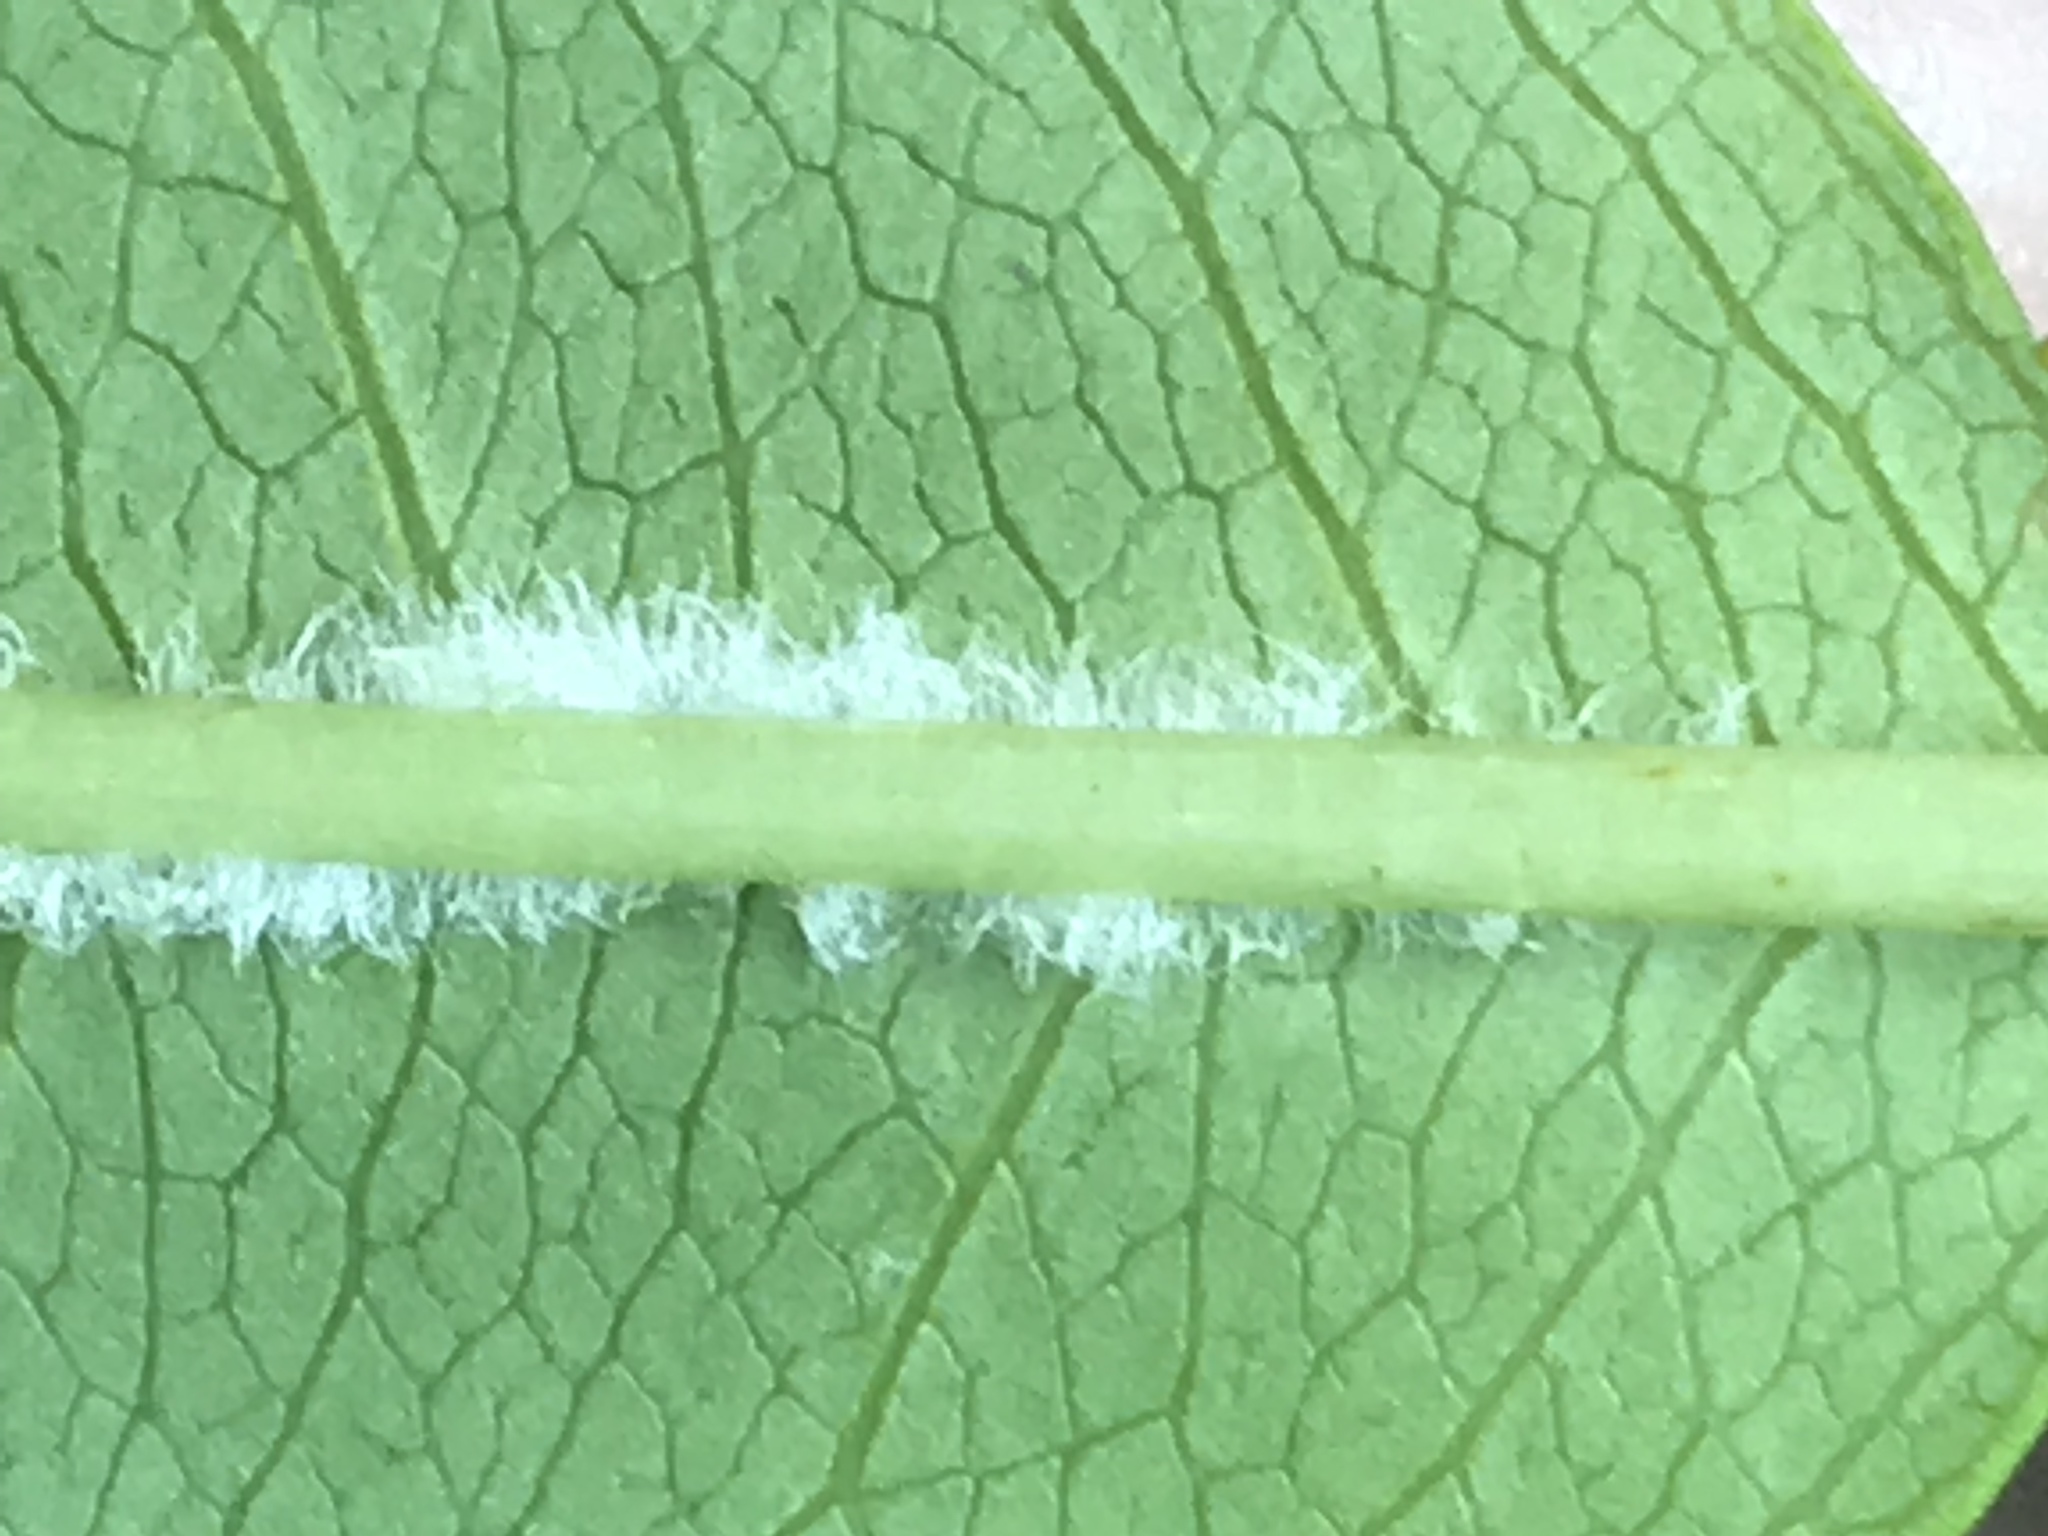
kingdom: Plantae
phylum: Tracheophyta
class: Magnoliopsida
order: Rosales
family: Rosaceae
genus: Prunus
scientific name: Prunus serotina
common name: Black cherry
